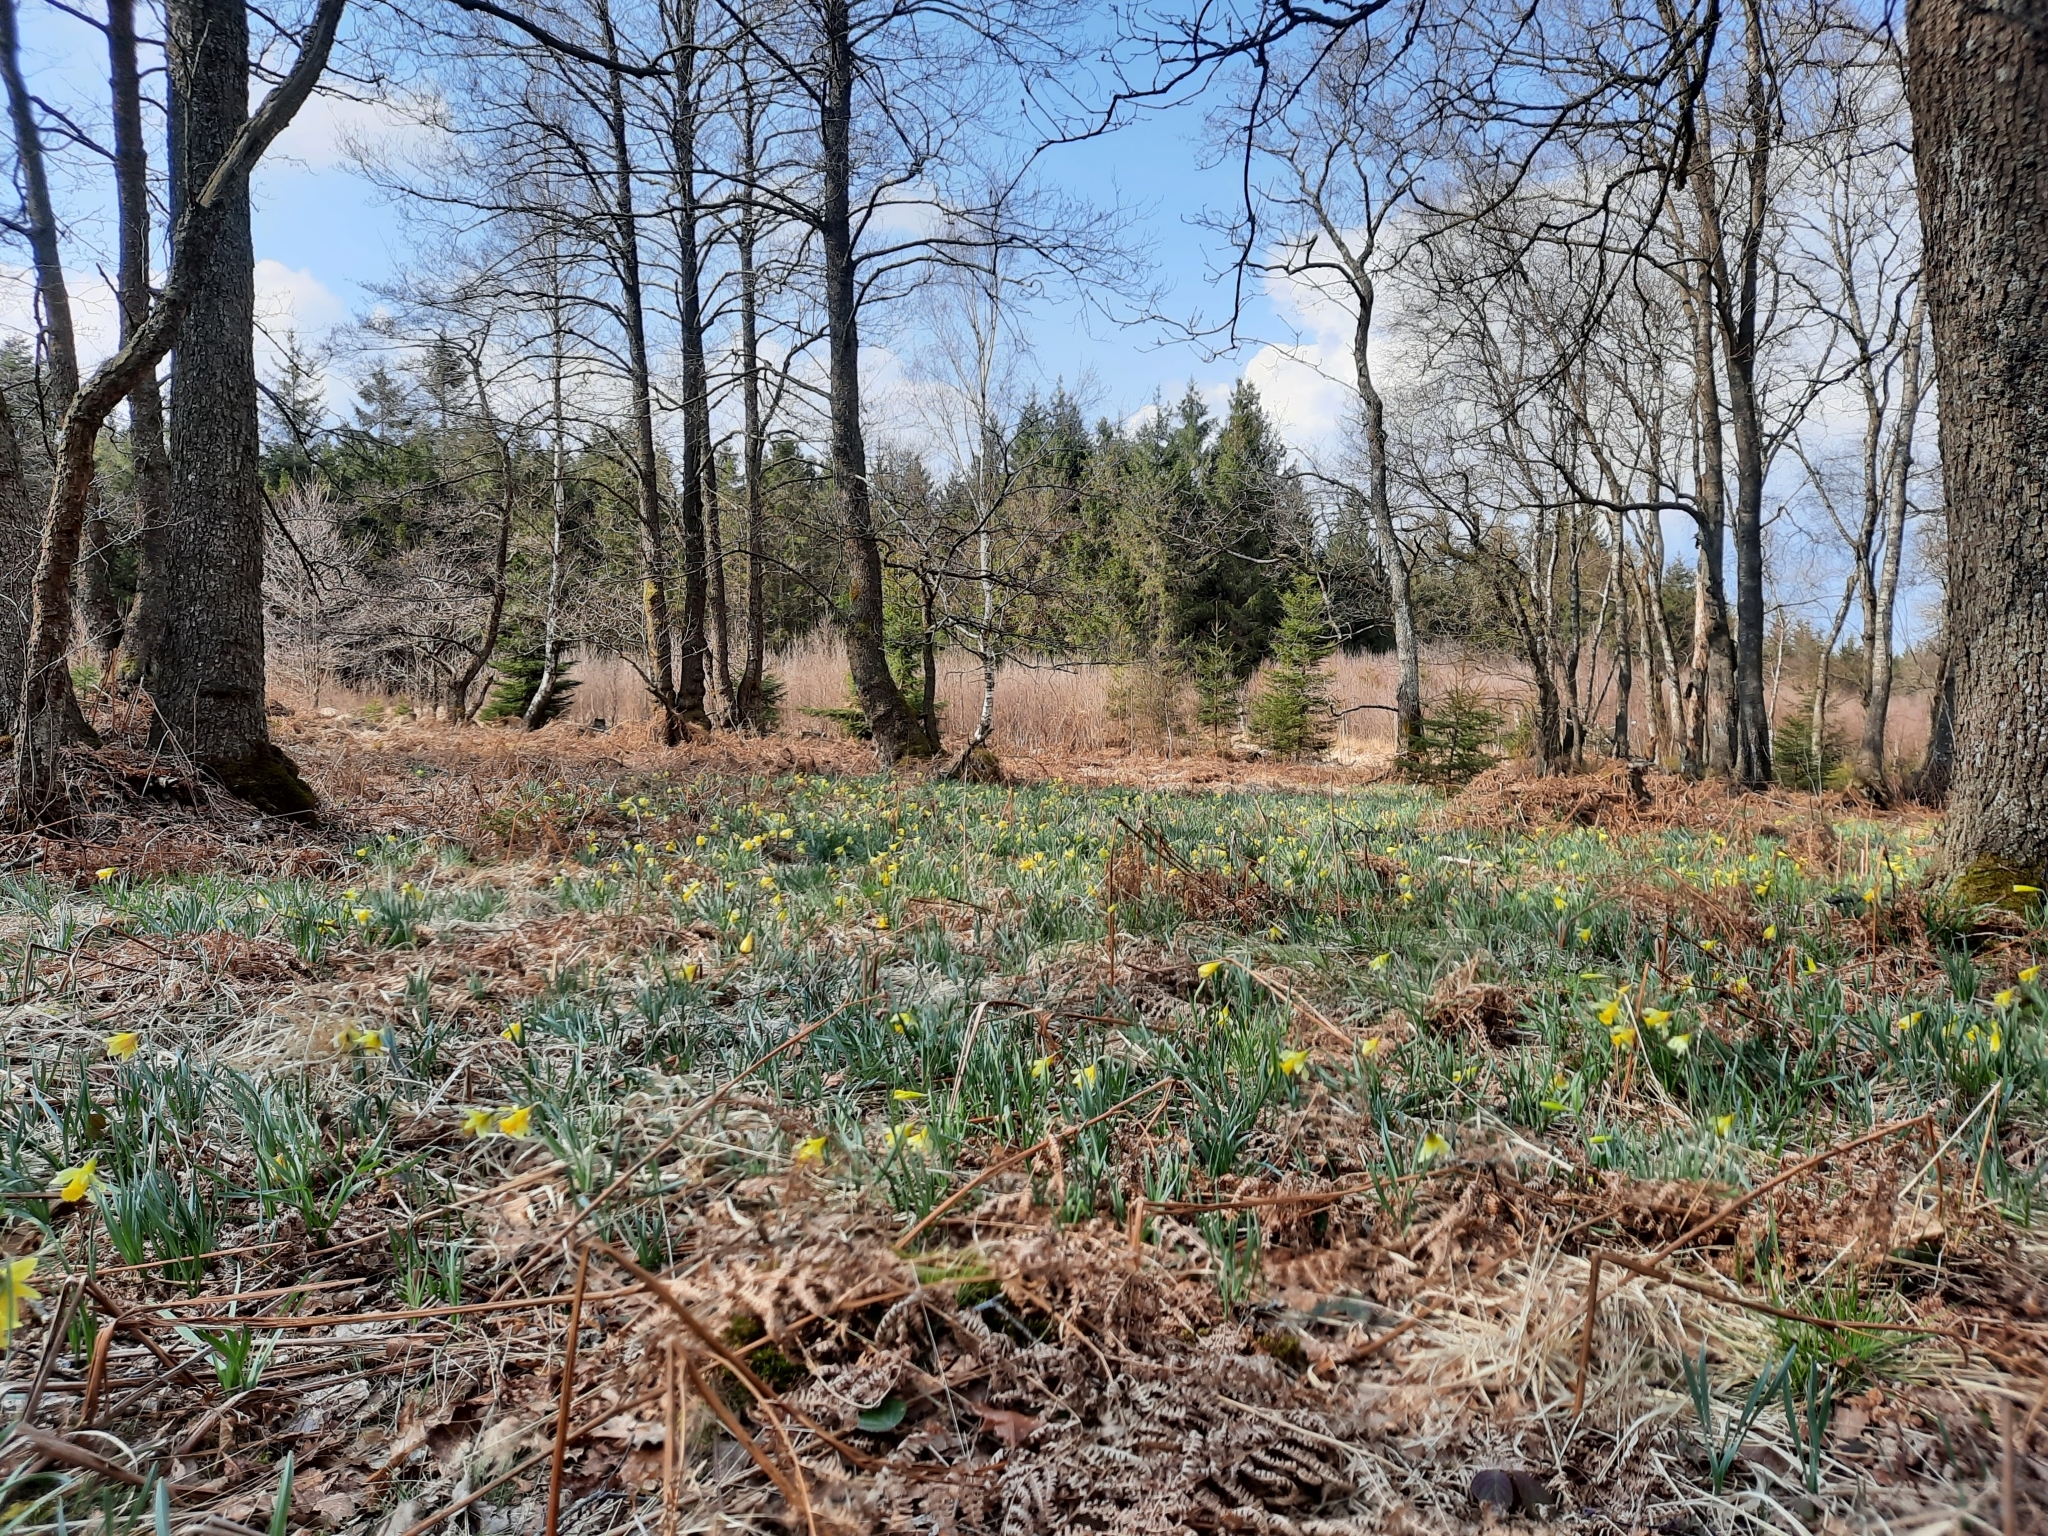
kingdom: Plantae
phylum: Tracheophyta
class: Liliopsida
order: Asparagales
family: Amaryllidaceae
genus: Narcissus
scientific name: Narcissus pseudonarcissus
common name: Daffodil
